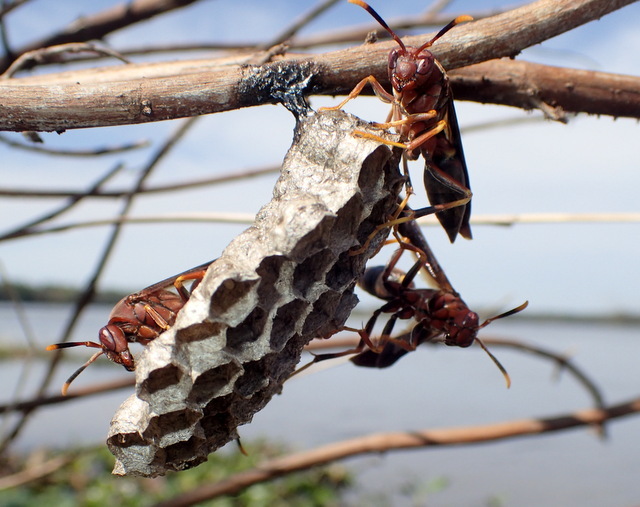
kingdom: Animalia
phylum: Arthropoda
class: Insecta
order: Hymenoptera
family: Eumenidae
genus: Polistes
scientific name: Polistes annularis
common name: Ringed paper wasp
